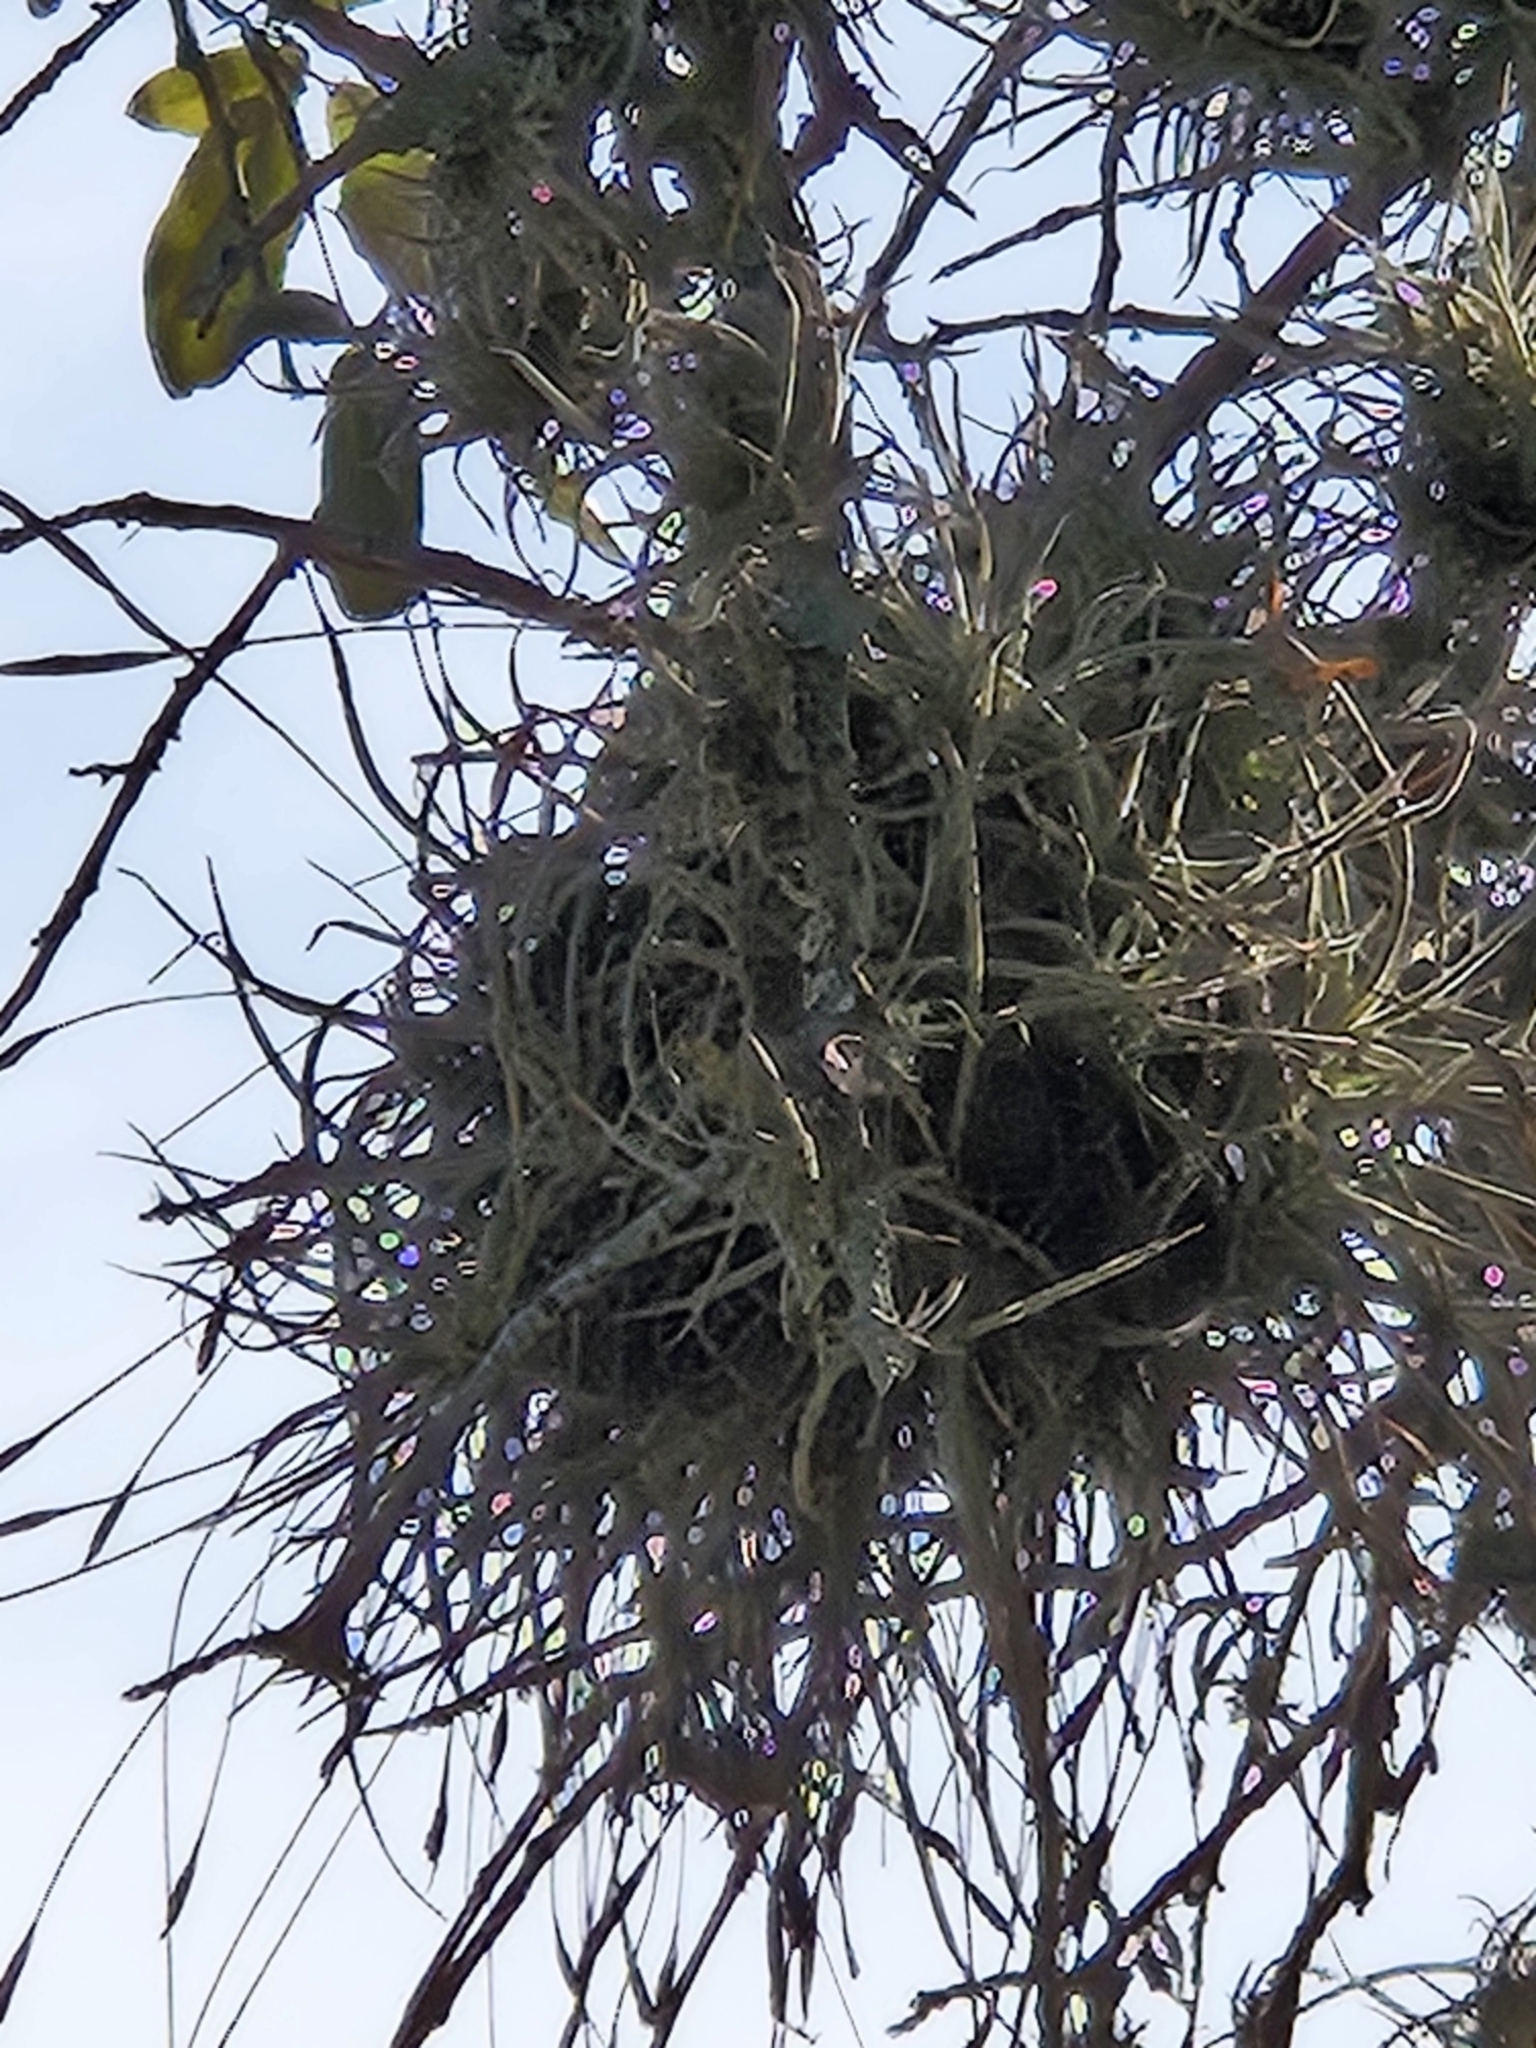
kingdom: Plantae
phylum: Tracheophyta
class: Liliopsida
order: Poales
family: Bromeliaceae
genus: Tillandsia
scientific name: Tillandsia recurvata
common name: Small ballmoss
